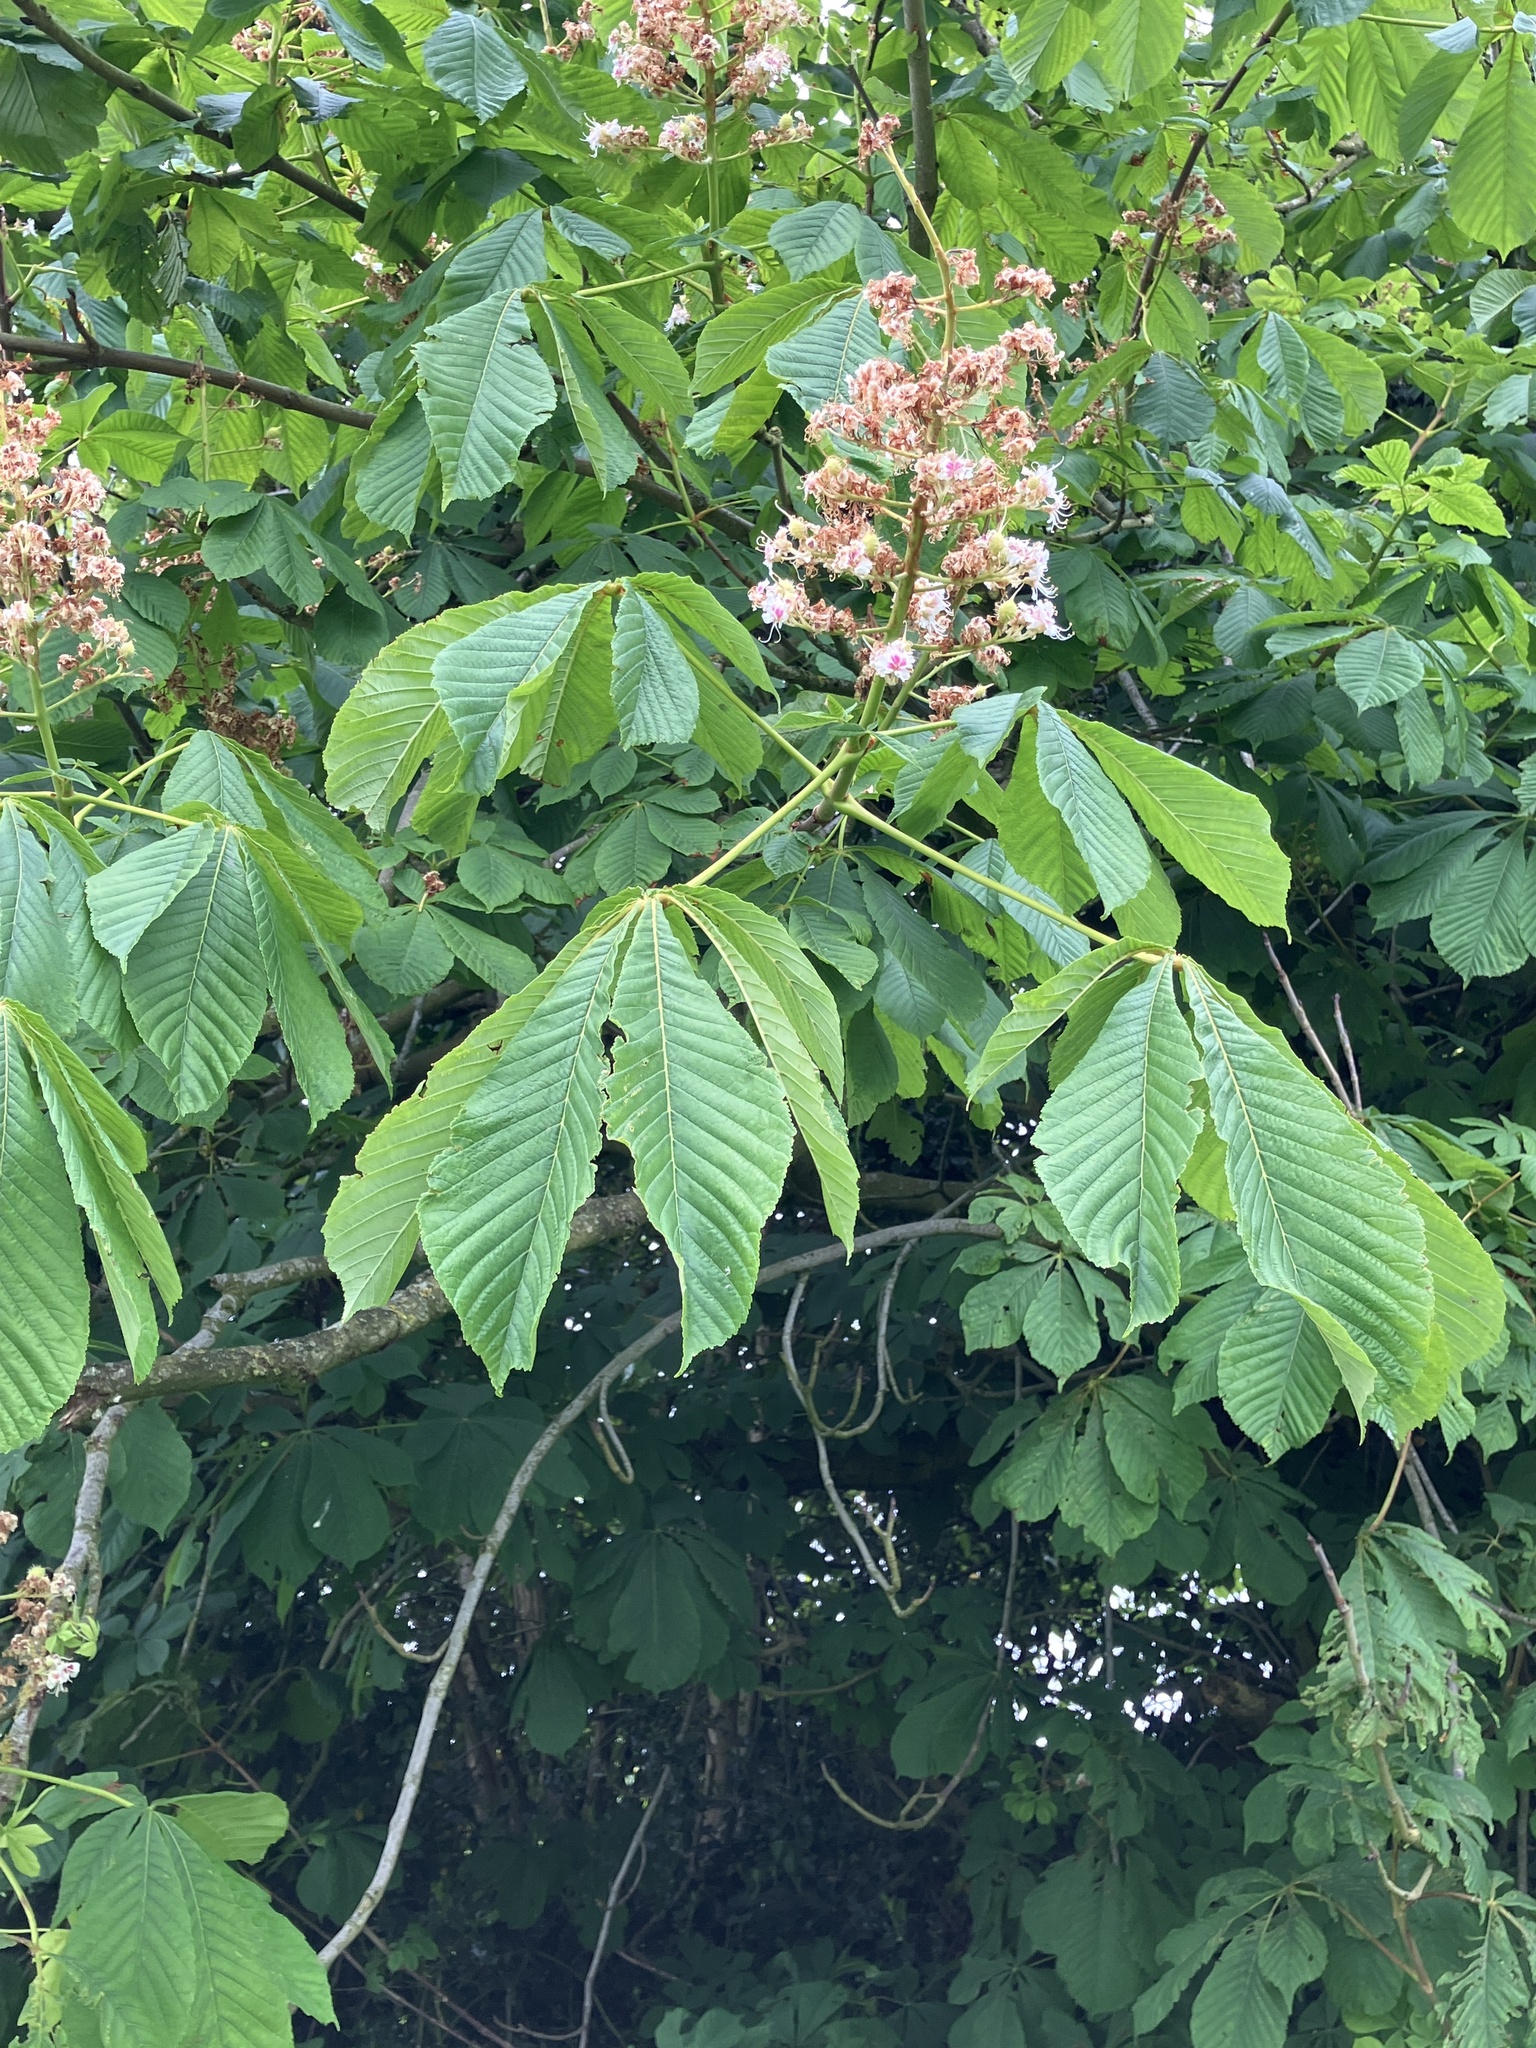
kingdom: Plantae
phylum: Tracheophyta
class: Magnoliopsida
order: Sapindales
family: Sapindaceae
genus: Aesculus
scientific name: Aesculus hippocastanum
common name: Horse-chestnut
